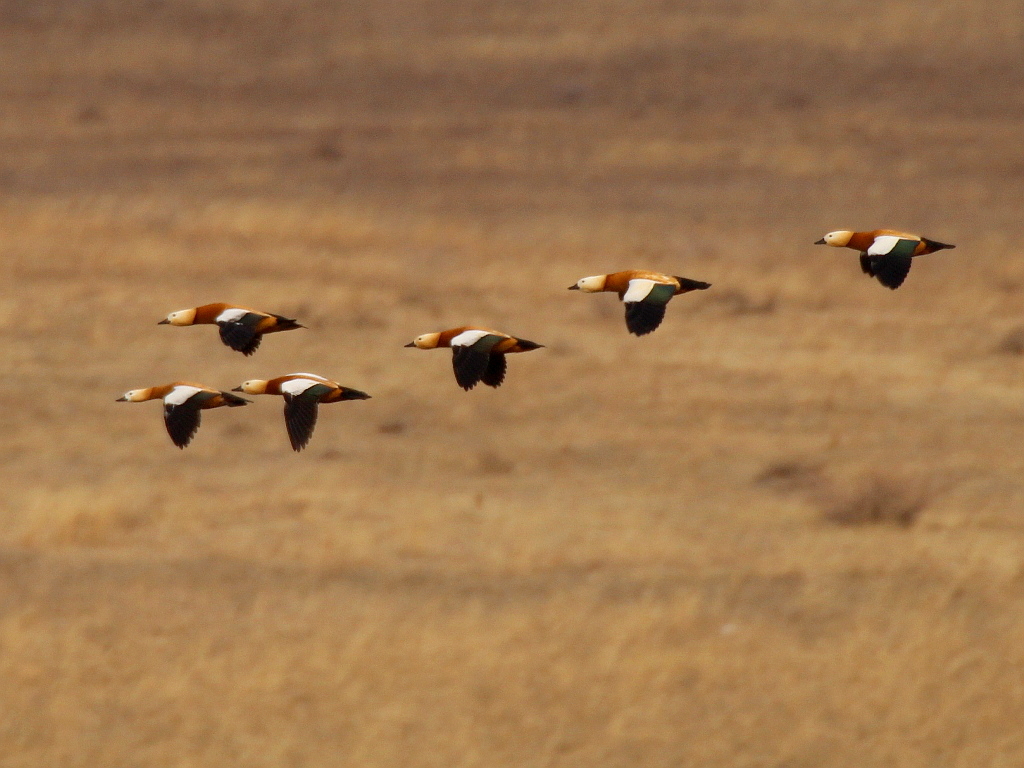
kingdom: Animalia
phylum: Chordata
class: Aves
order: Anseriformes
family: Anatidae
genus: Tadorna
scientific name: Tadorna ferruginea
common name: Ruddy shelduck
